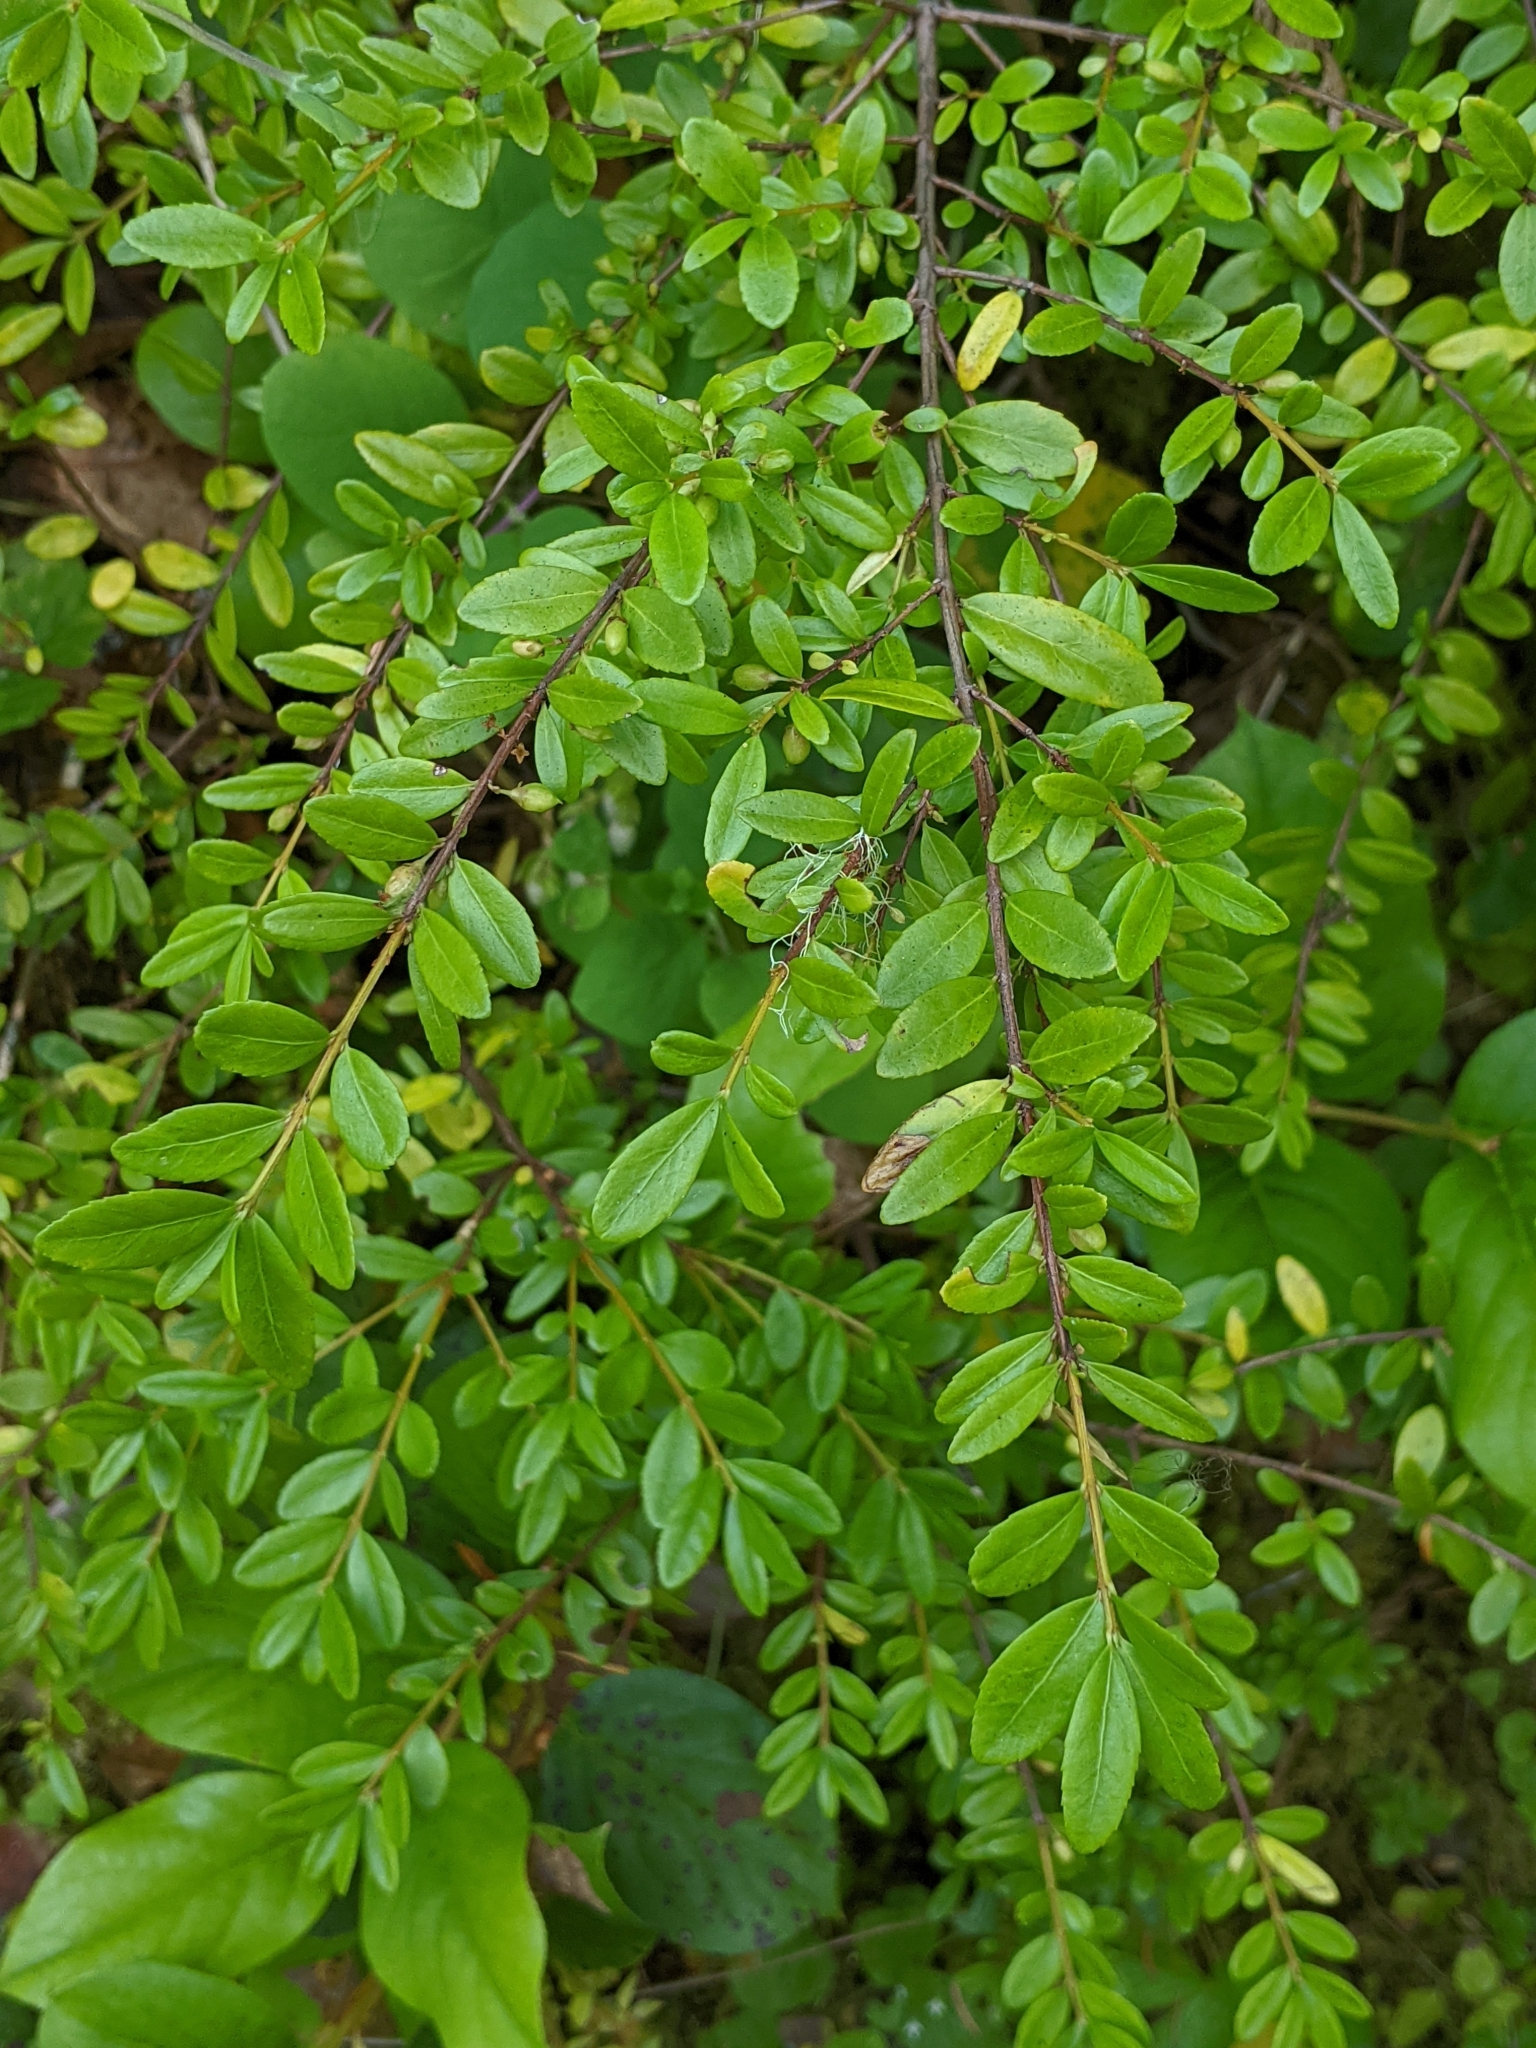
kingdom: Plantae
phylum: Tracheophyta
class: Magnoliopsida
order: Celastrales
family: Celastraceae
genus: Paxistima
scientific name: Paxistima myrsinites
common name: Mountain-lover
